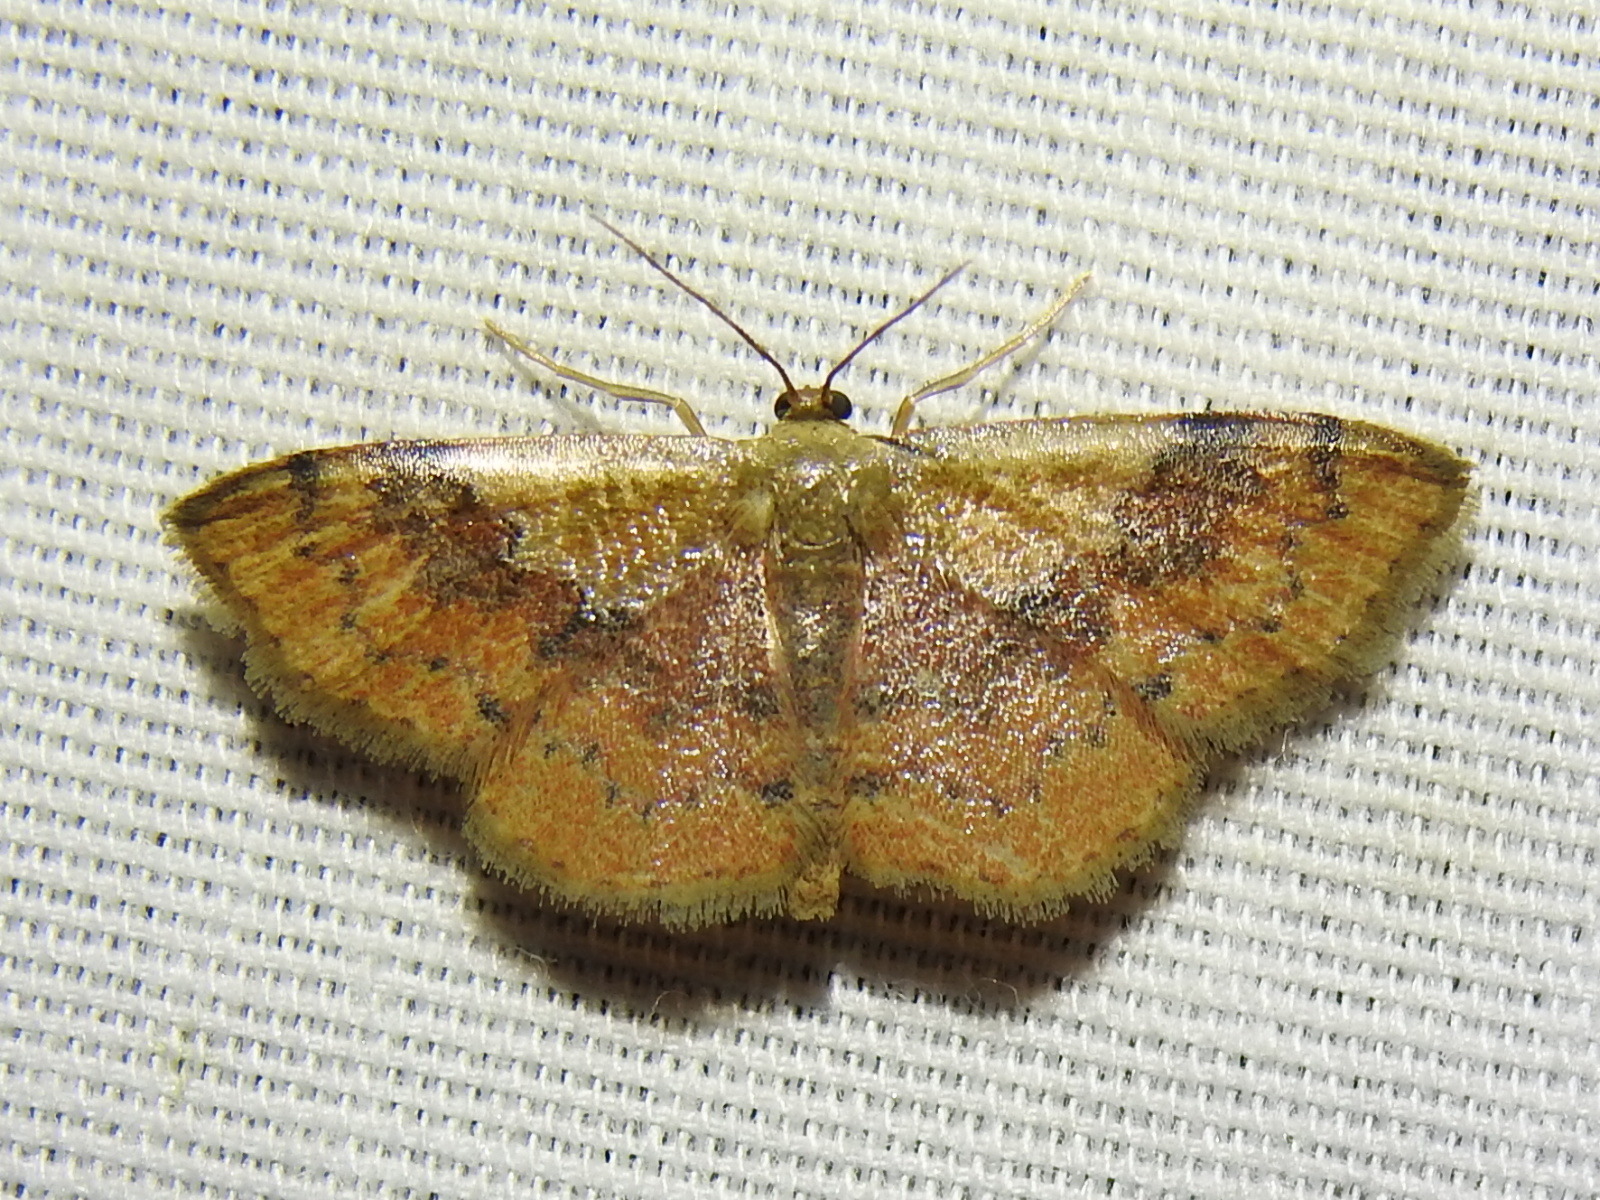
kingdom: Animalia
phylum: Arthropoda
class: Insecta
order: Lepidoptera
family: Geometridae
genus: Leptostales
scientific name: Leptostales ferruminaria
